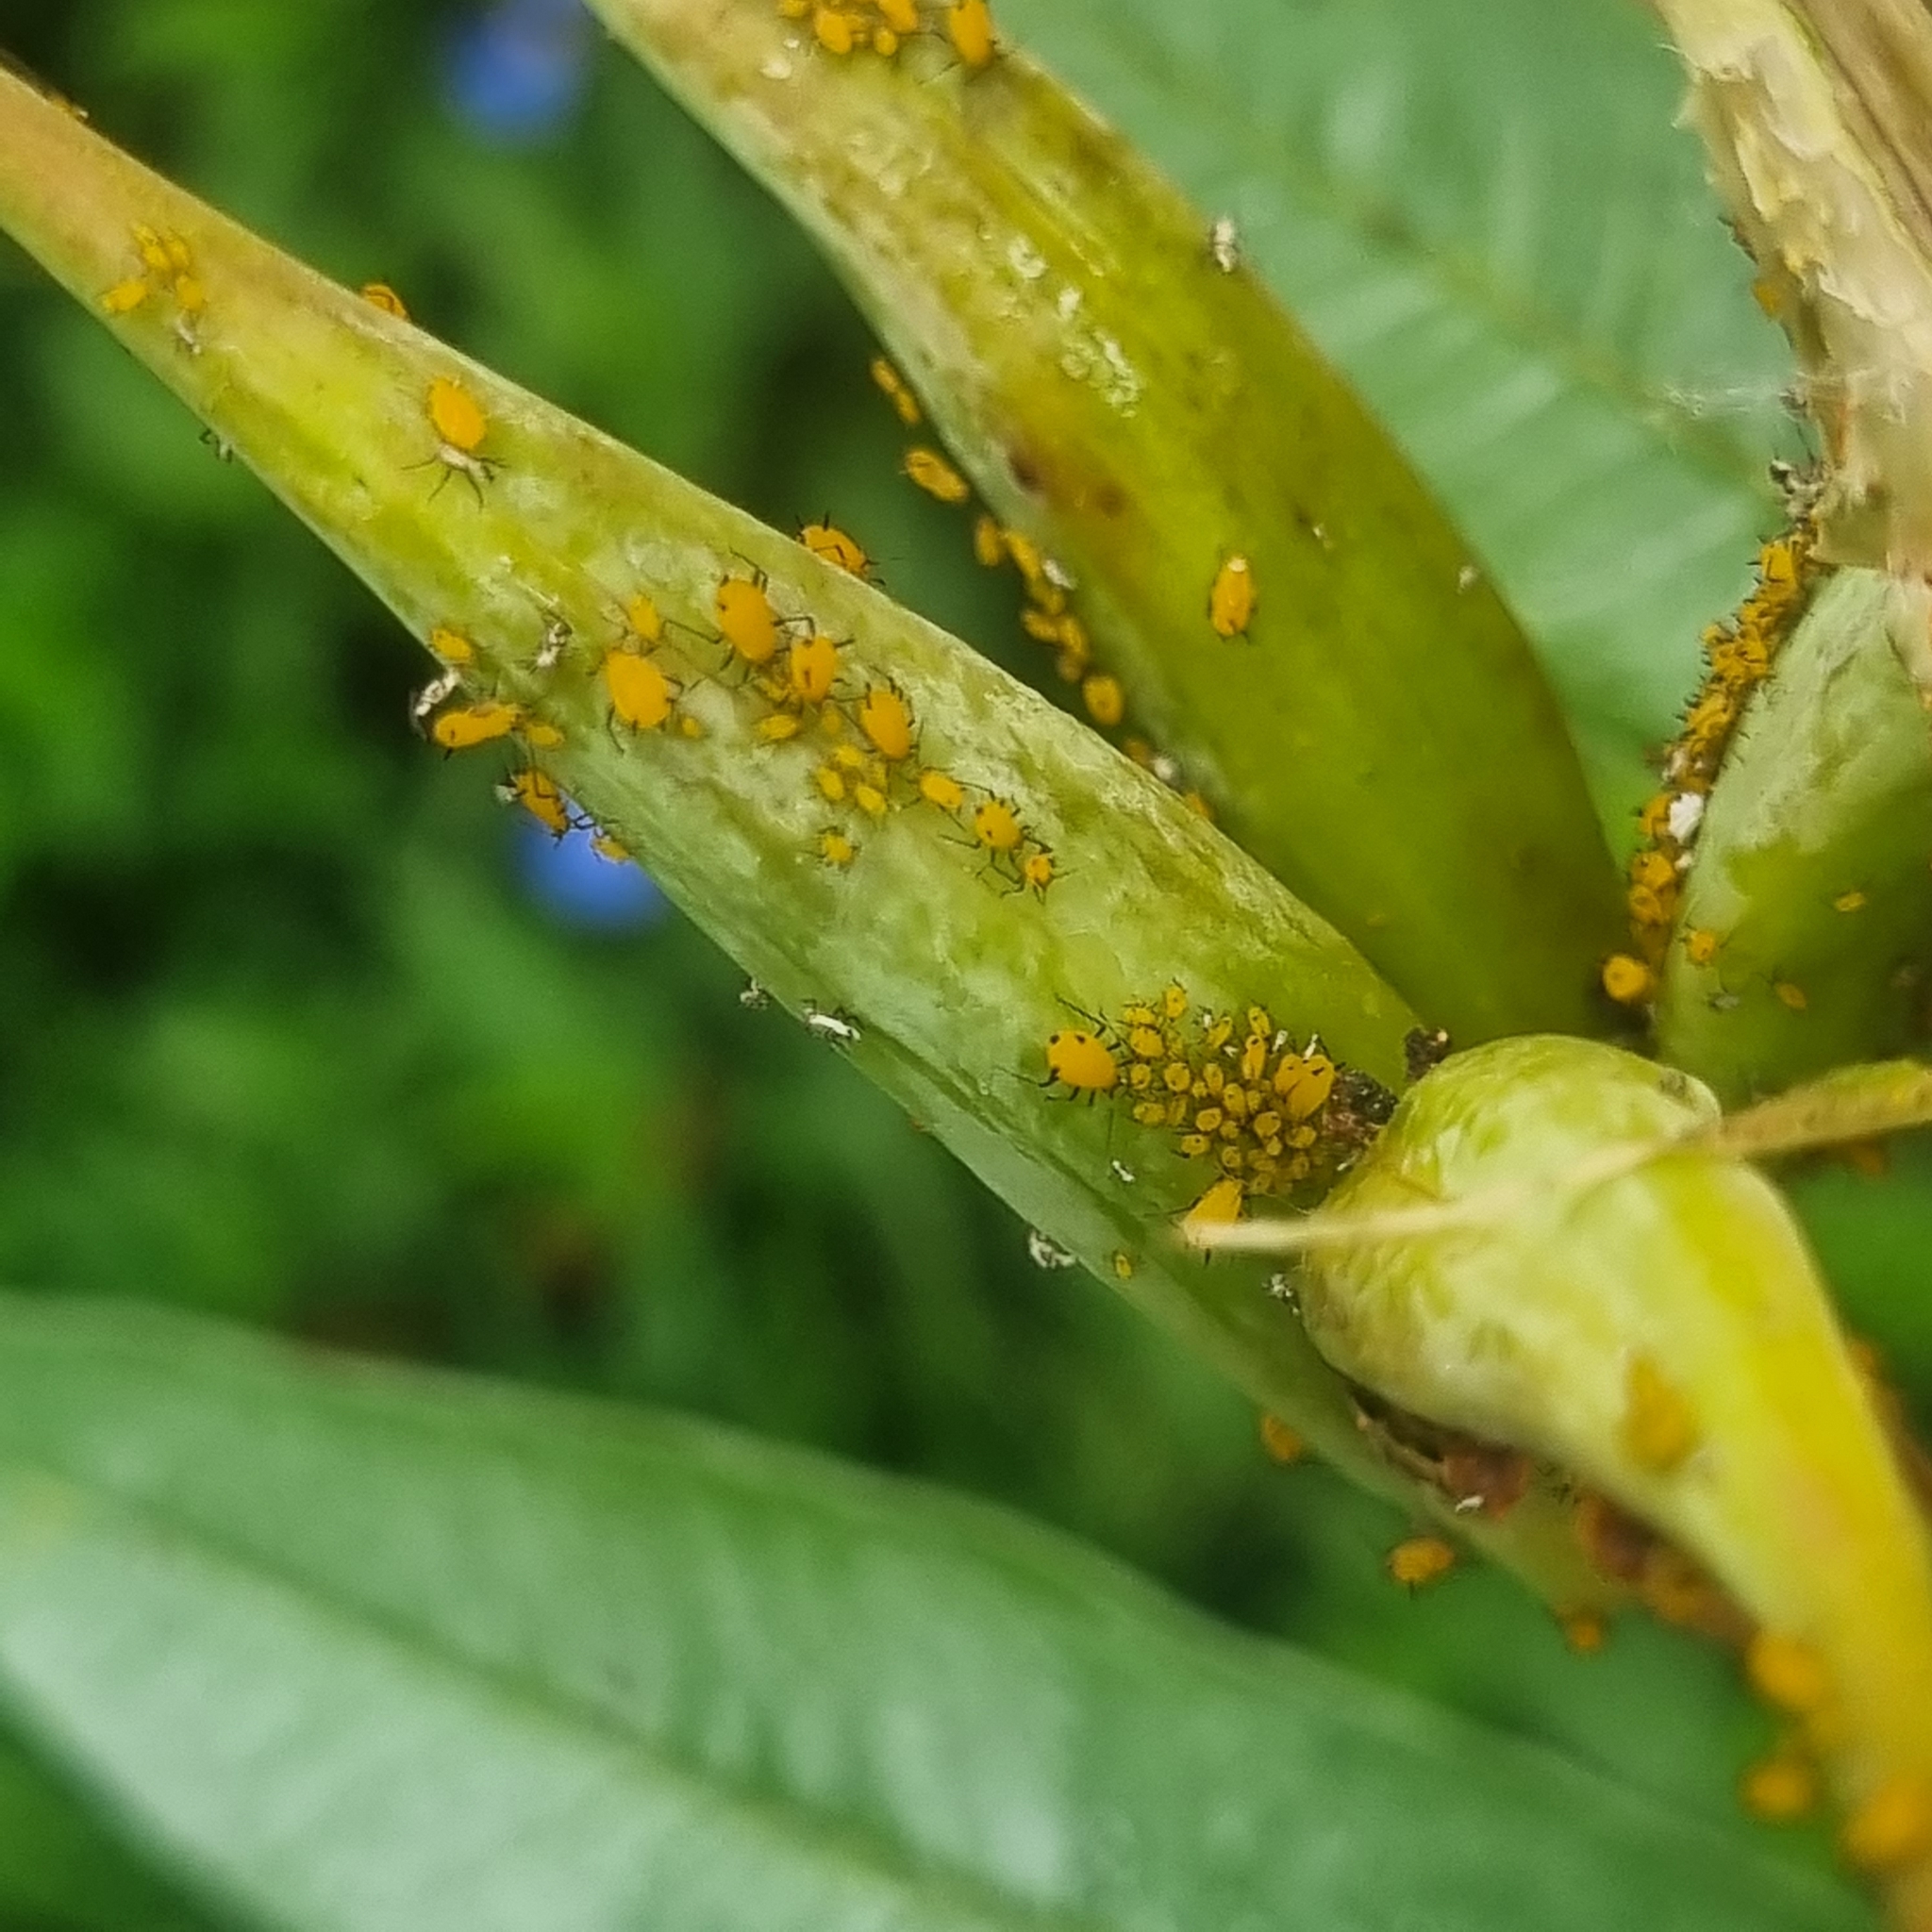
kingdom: Animalia
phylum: Arthropoda
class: Insecta
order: Hemiptera
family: Aphididae
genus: Aphis
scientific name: Aphis nerii
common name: Oleander aphid
